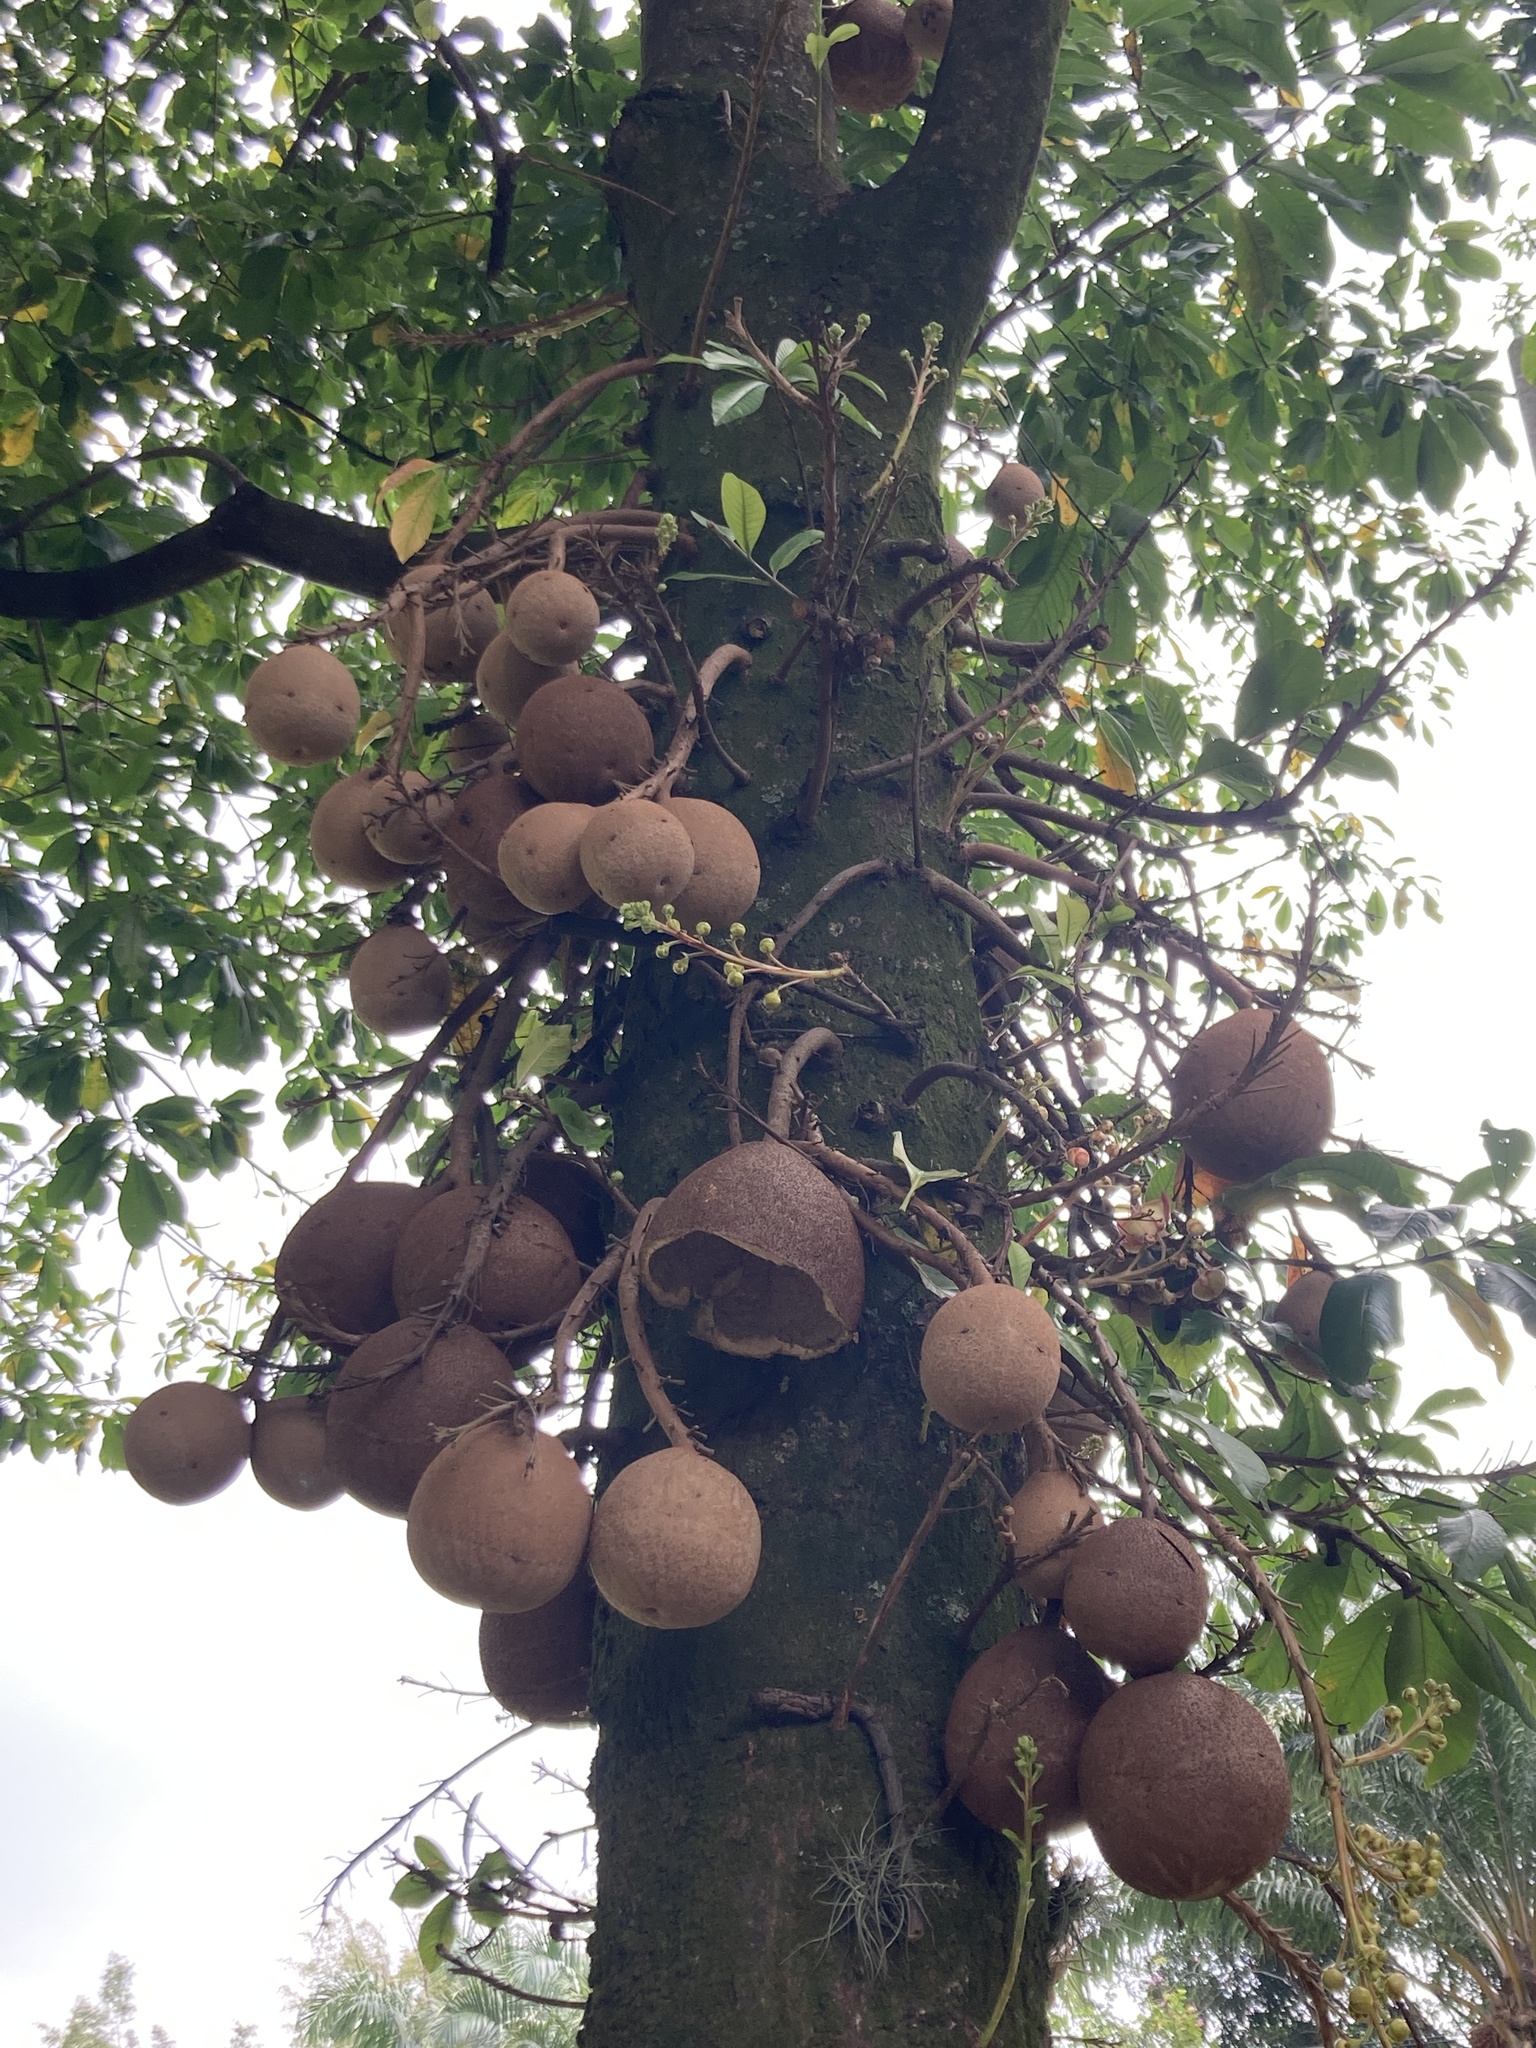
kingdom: Plantae
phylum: Tracheophyta
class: Magnoliopsida
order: Ericales
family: Lecythidaceae
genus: Couroupita
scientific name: Couroupita guianensis
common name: Cannonball tree
